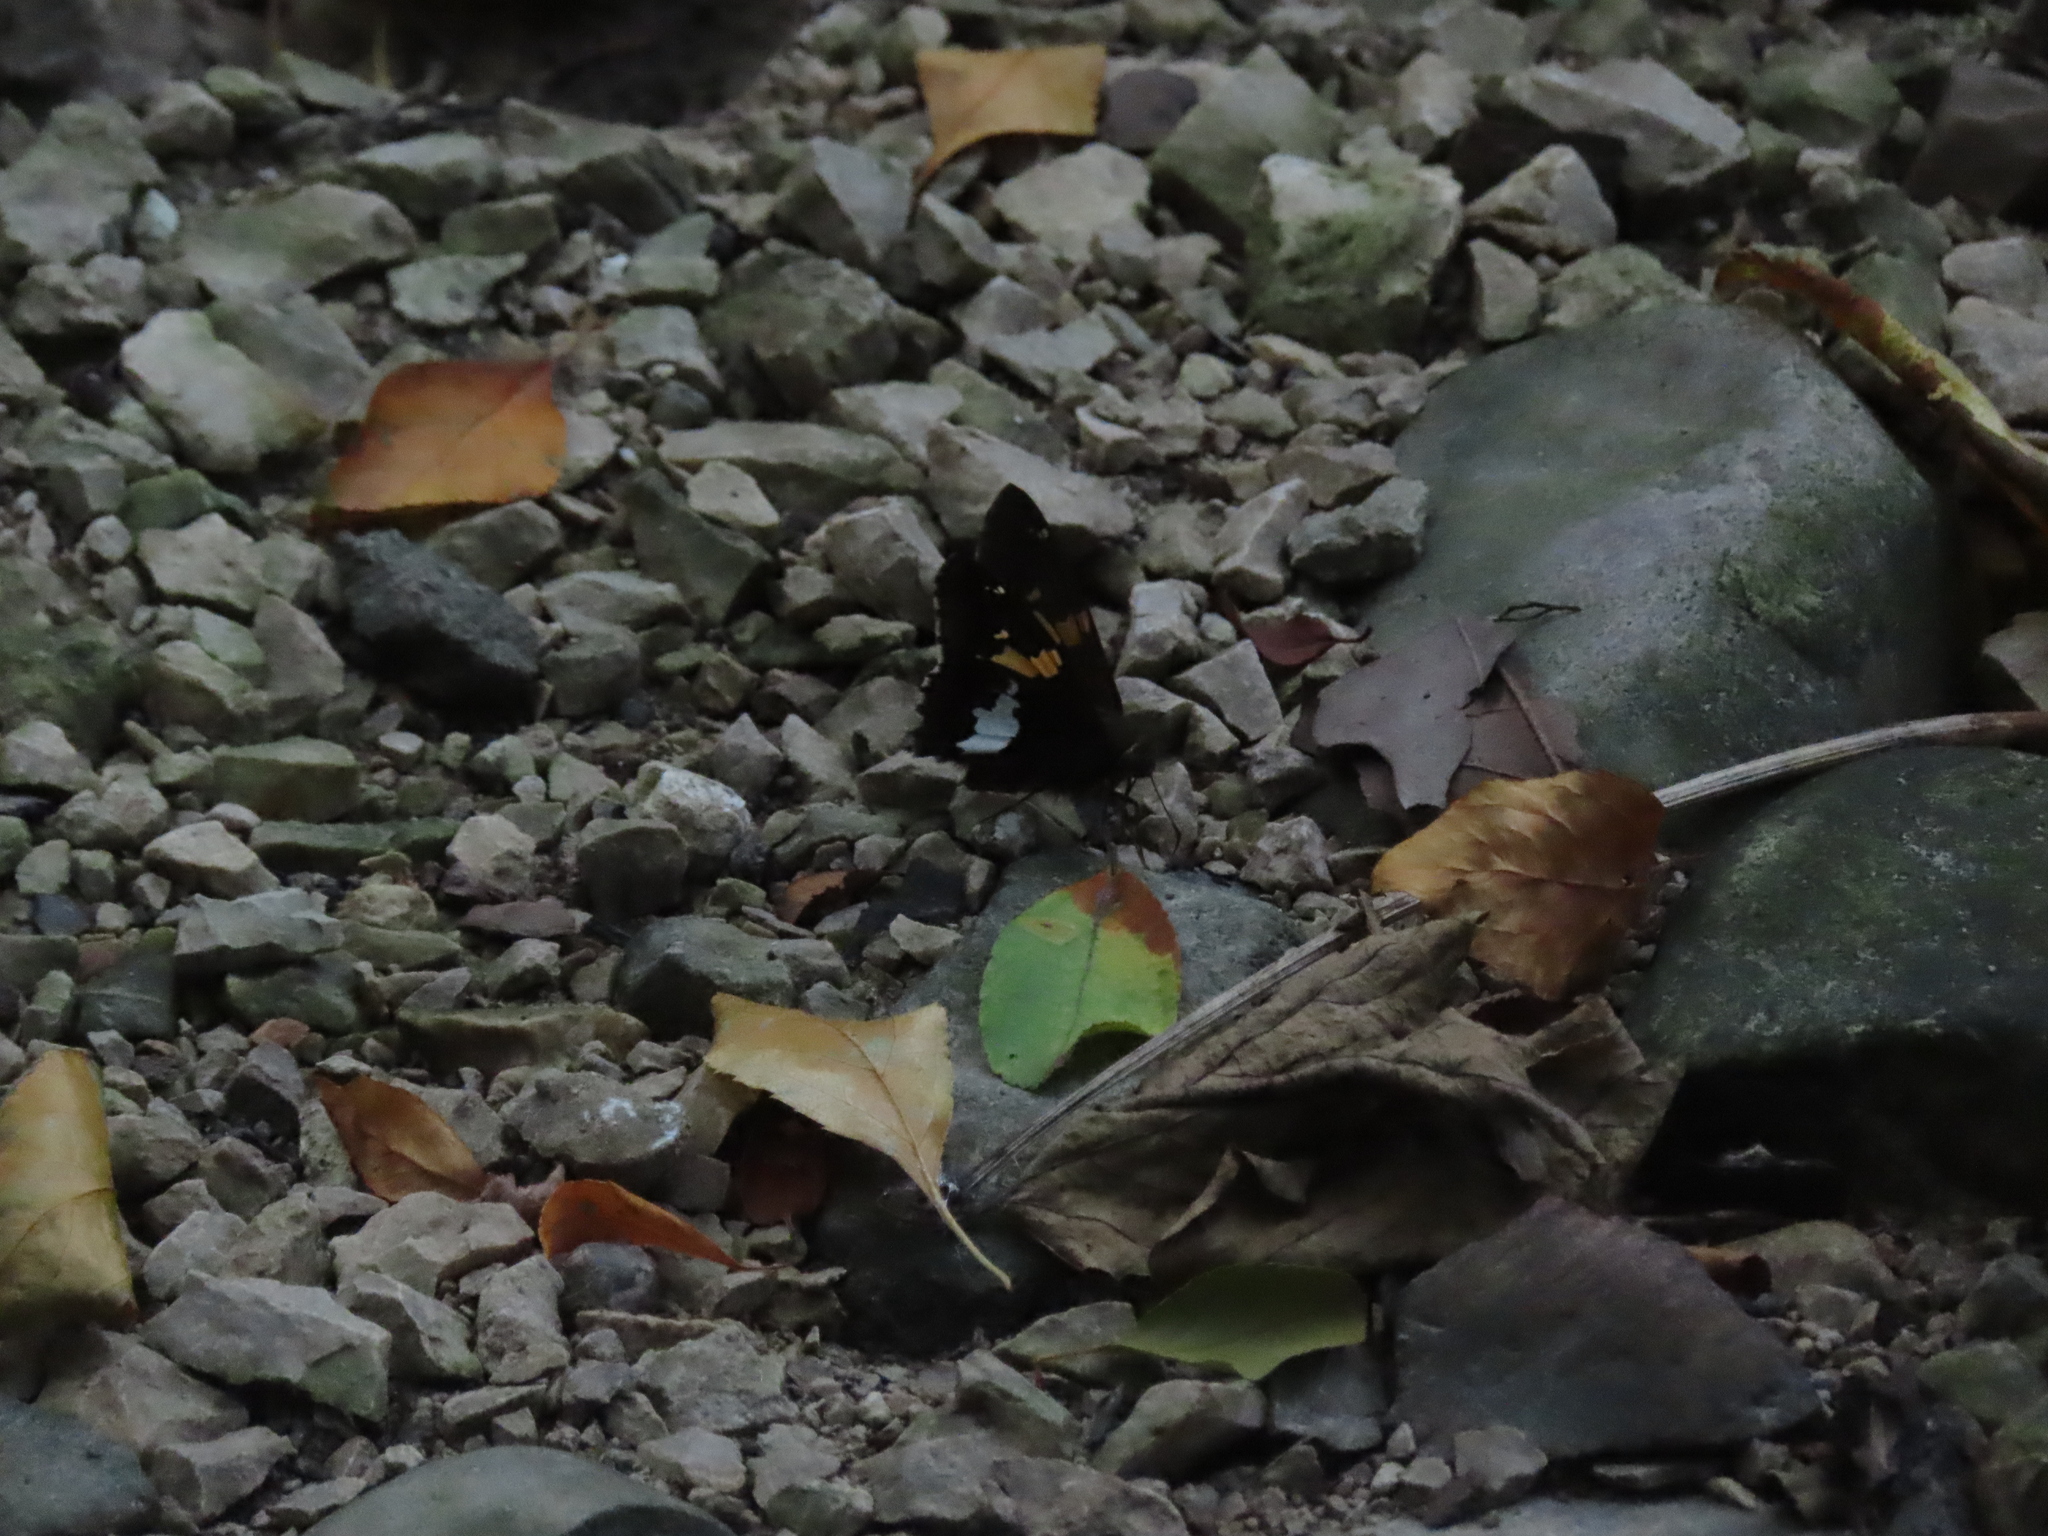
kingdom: Animalia
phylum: Arthropoda
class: Insecta
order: Lepidoptera
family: Hesperiidae
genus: Epargyreus
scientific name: Epargyreus clarus
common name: Silver-spotted skipper
